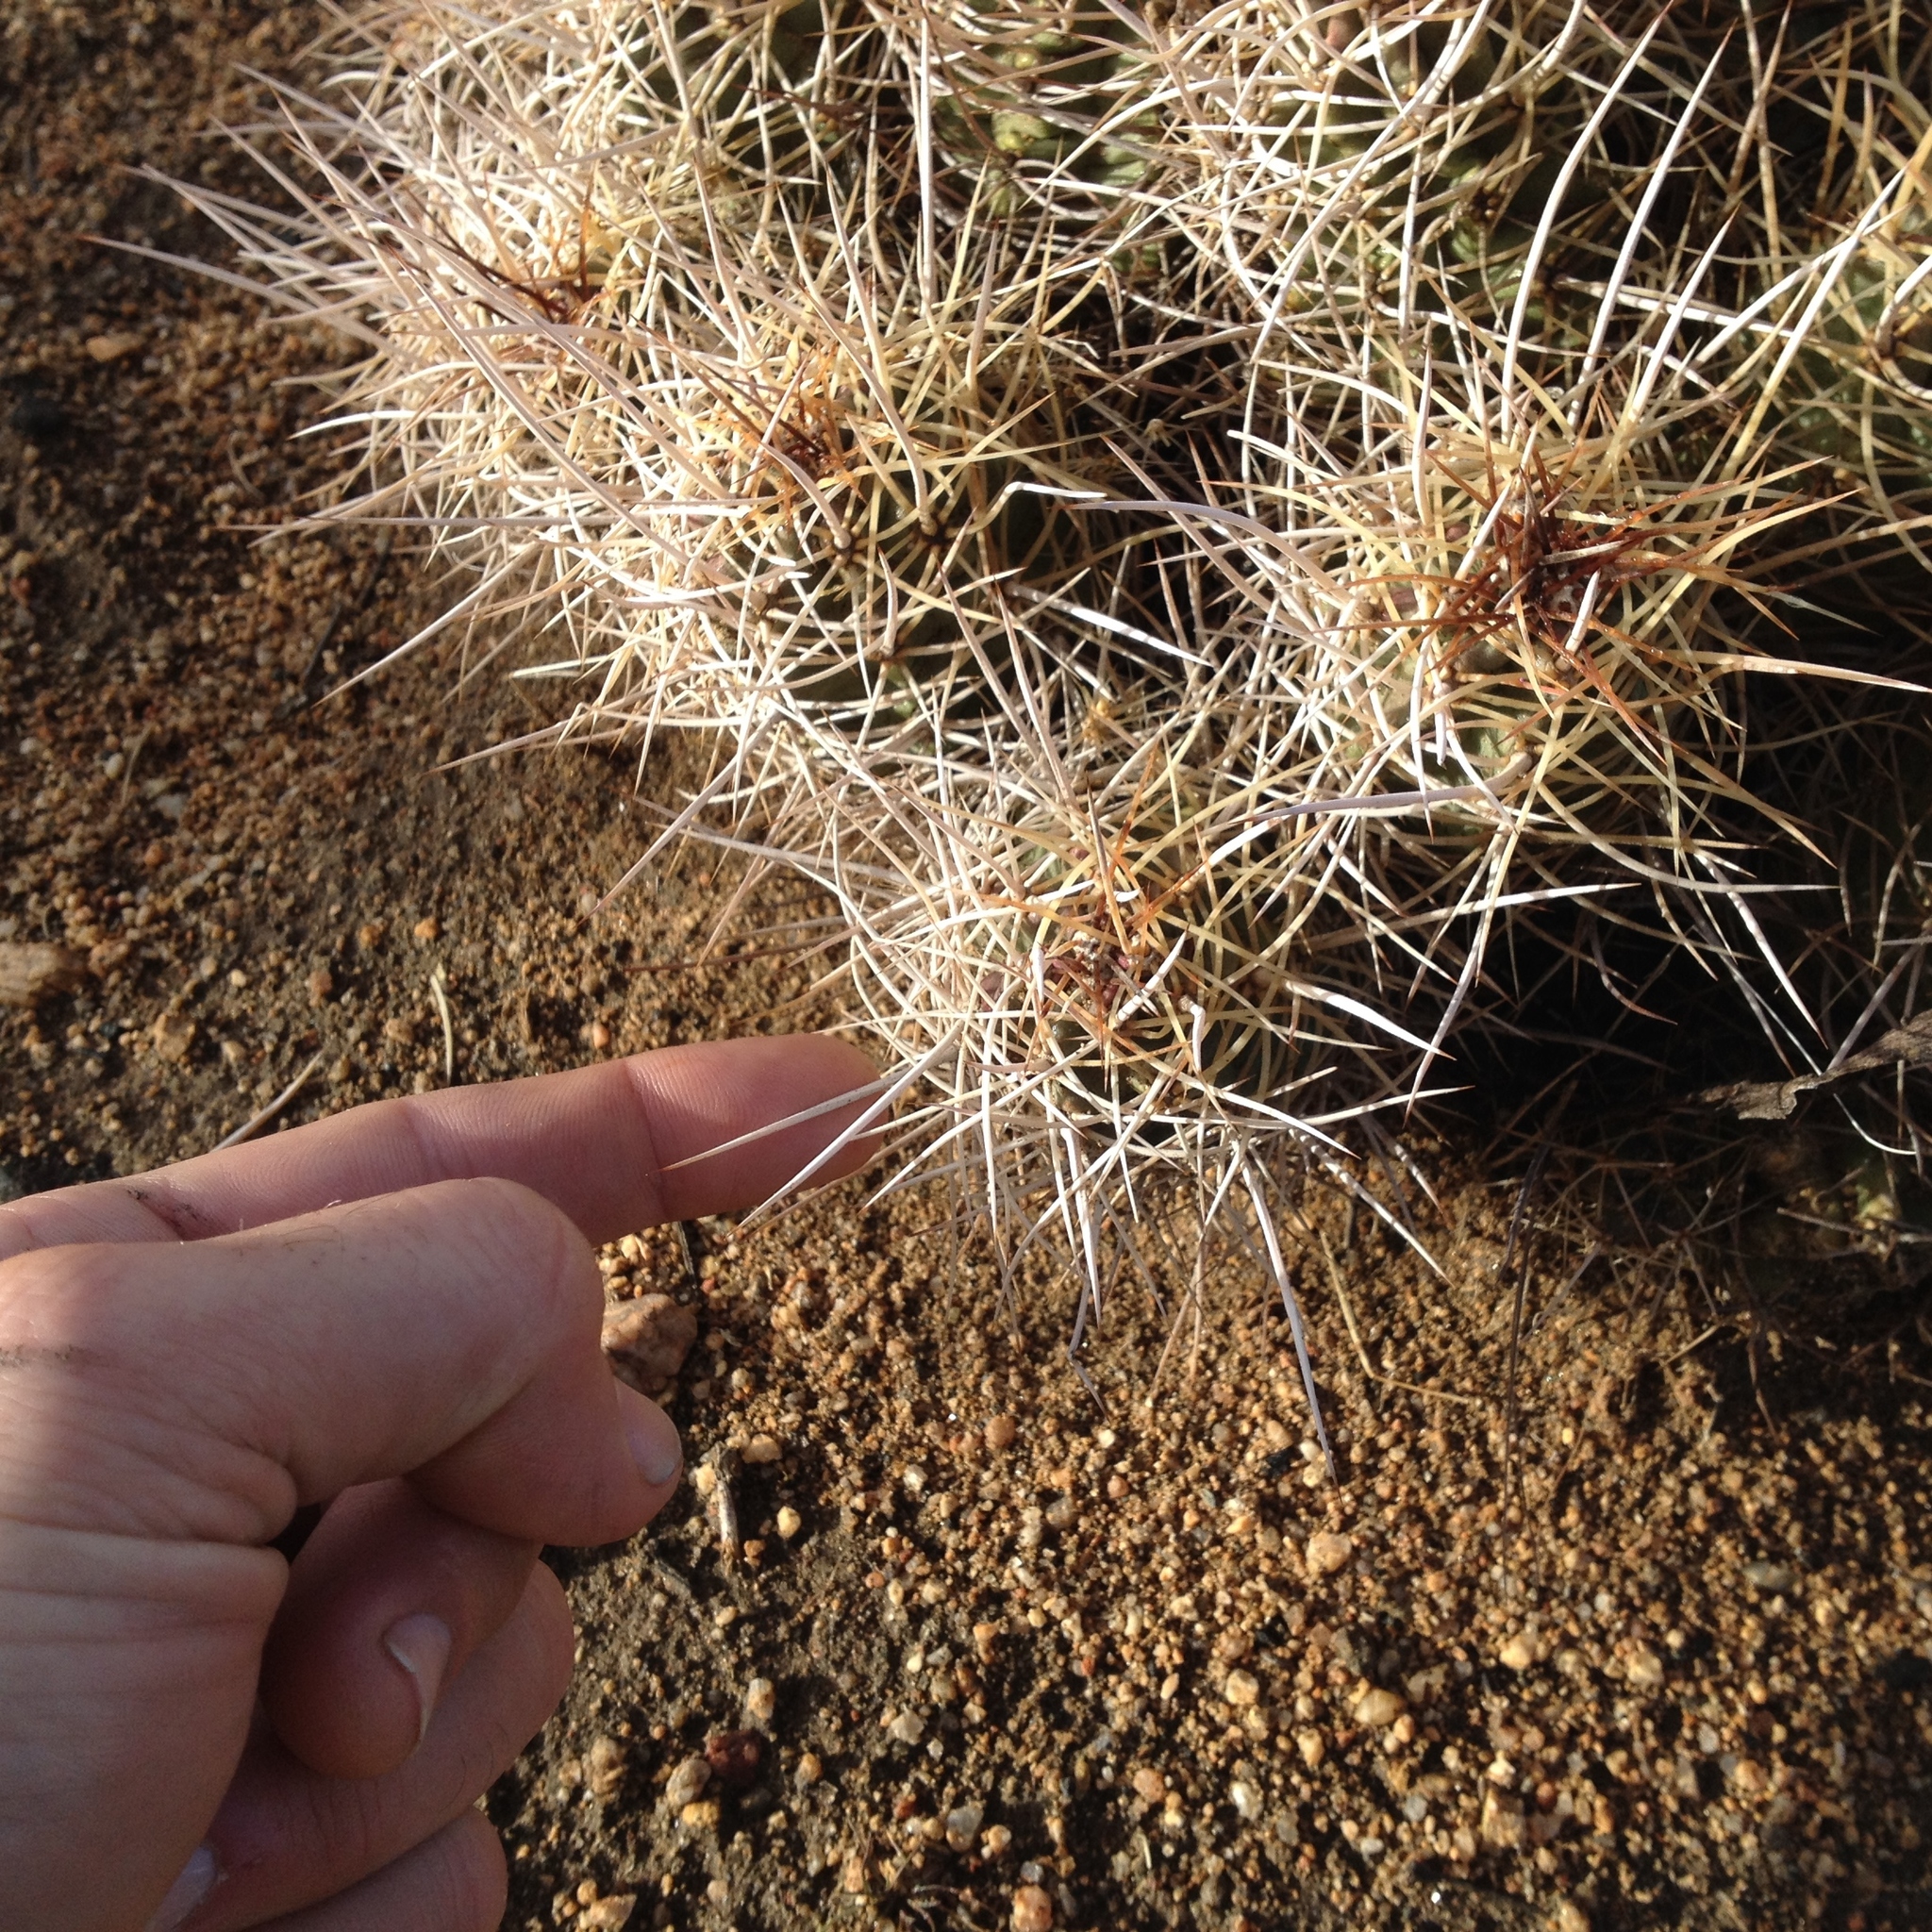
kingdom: Plantae
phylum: Tracheophyta
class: Magnoliopsida
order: Caryophyllales
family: Cactaceae
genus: Echinocereus
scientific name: Echinocereus triglochidiatus
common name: Claretcup hedgehog
